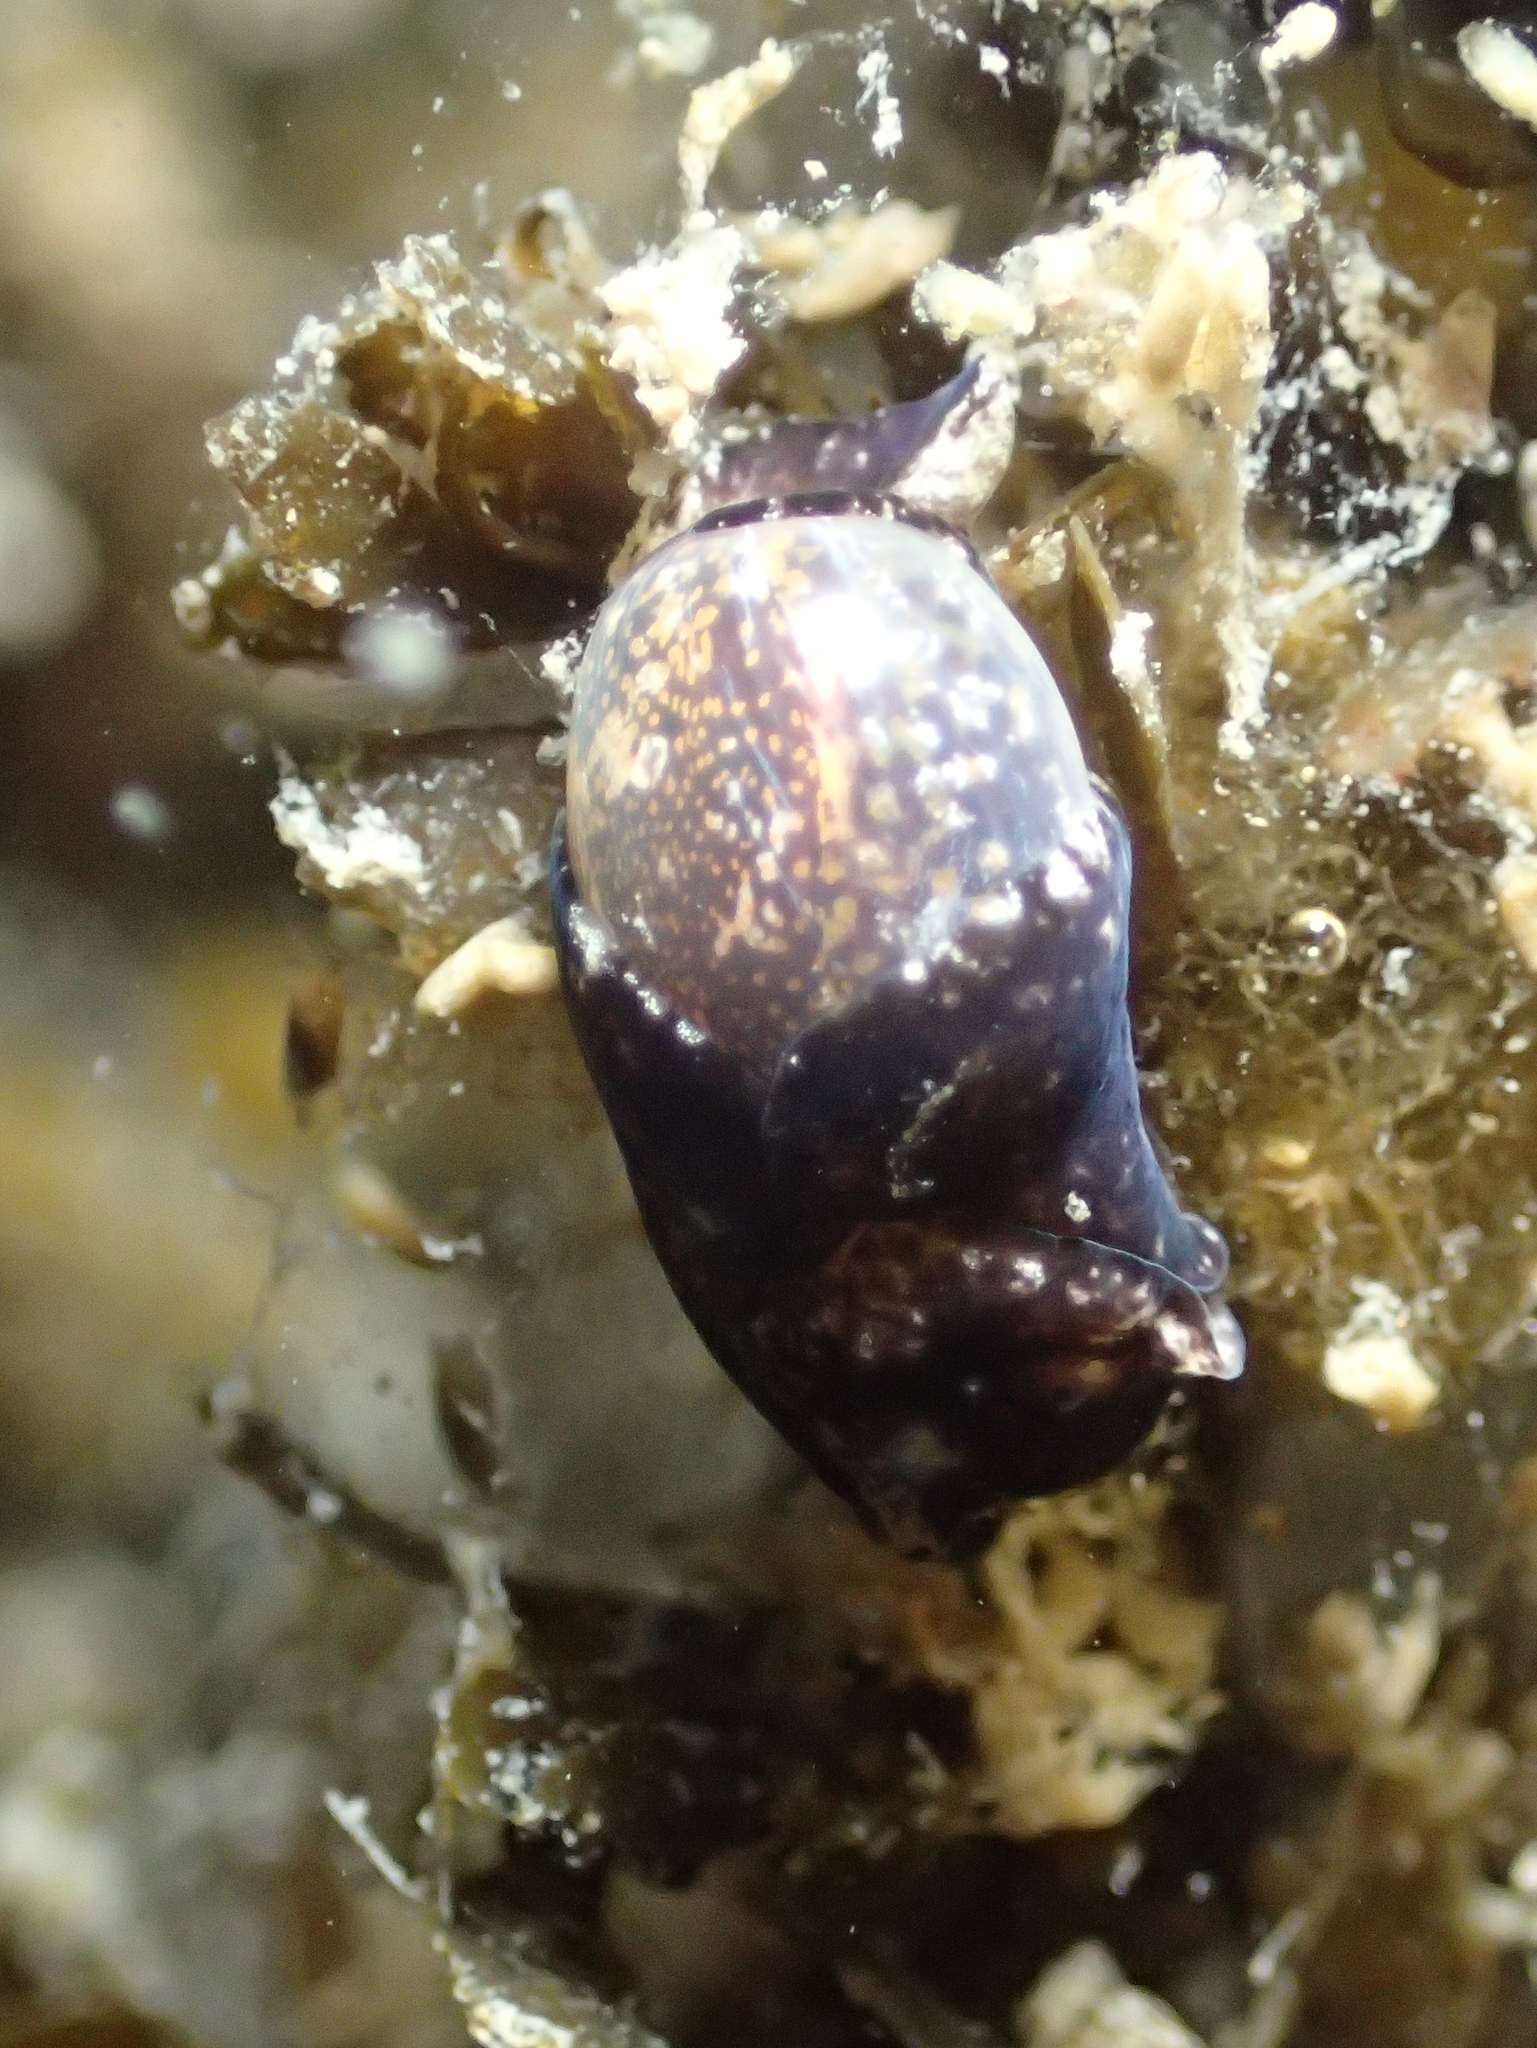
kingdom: Animalia
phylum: Mollusca
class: Gastropoda
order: Cephalaspidea
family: Haminoeidae
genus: Haminoea
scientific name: Haminoea exigua
